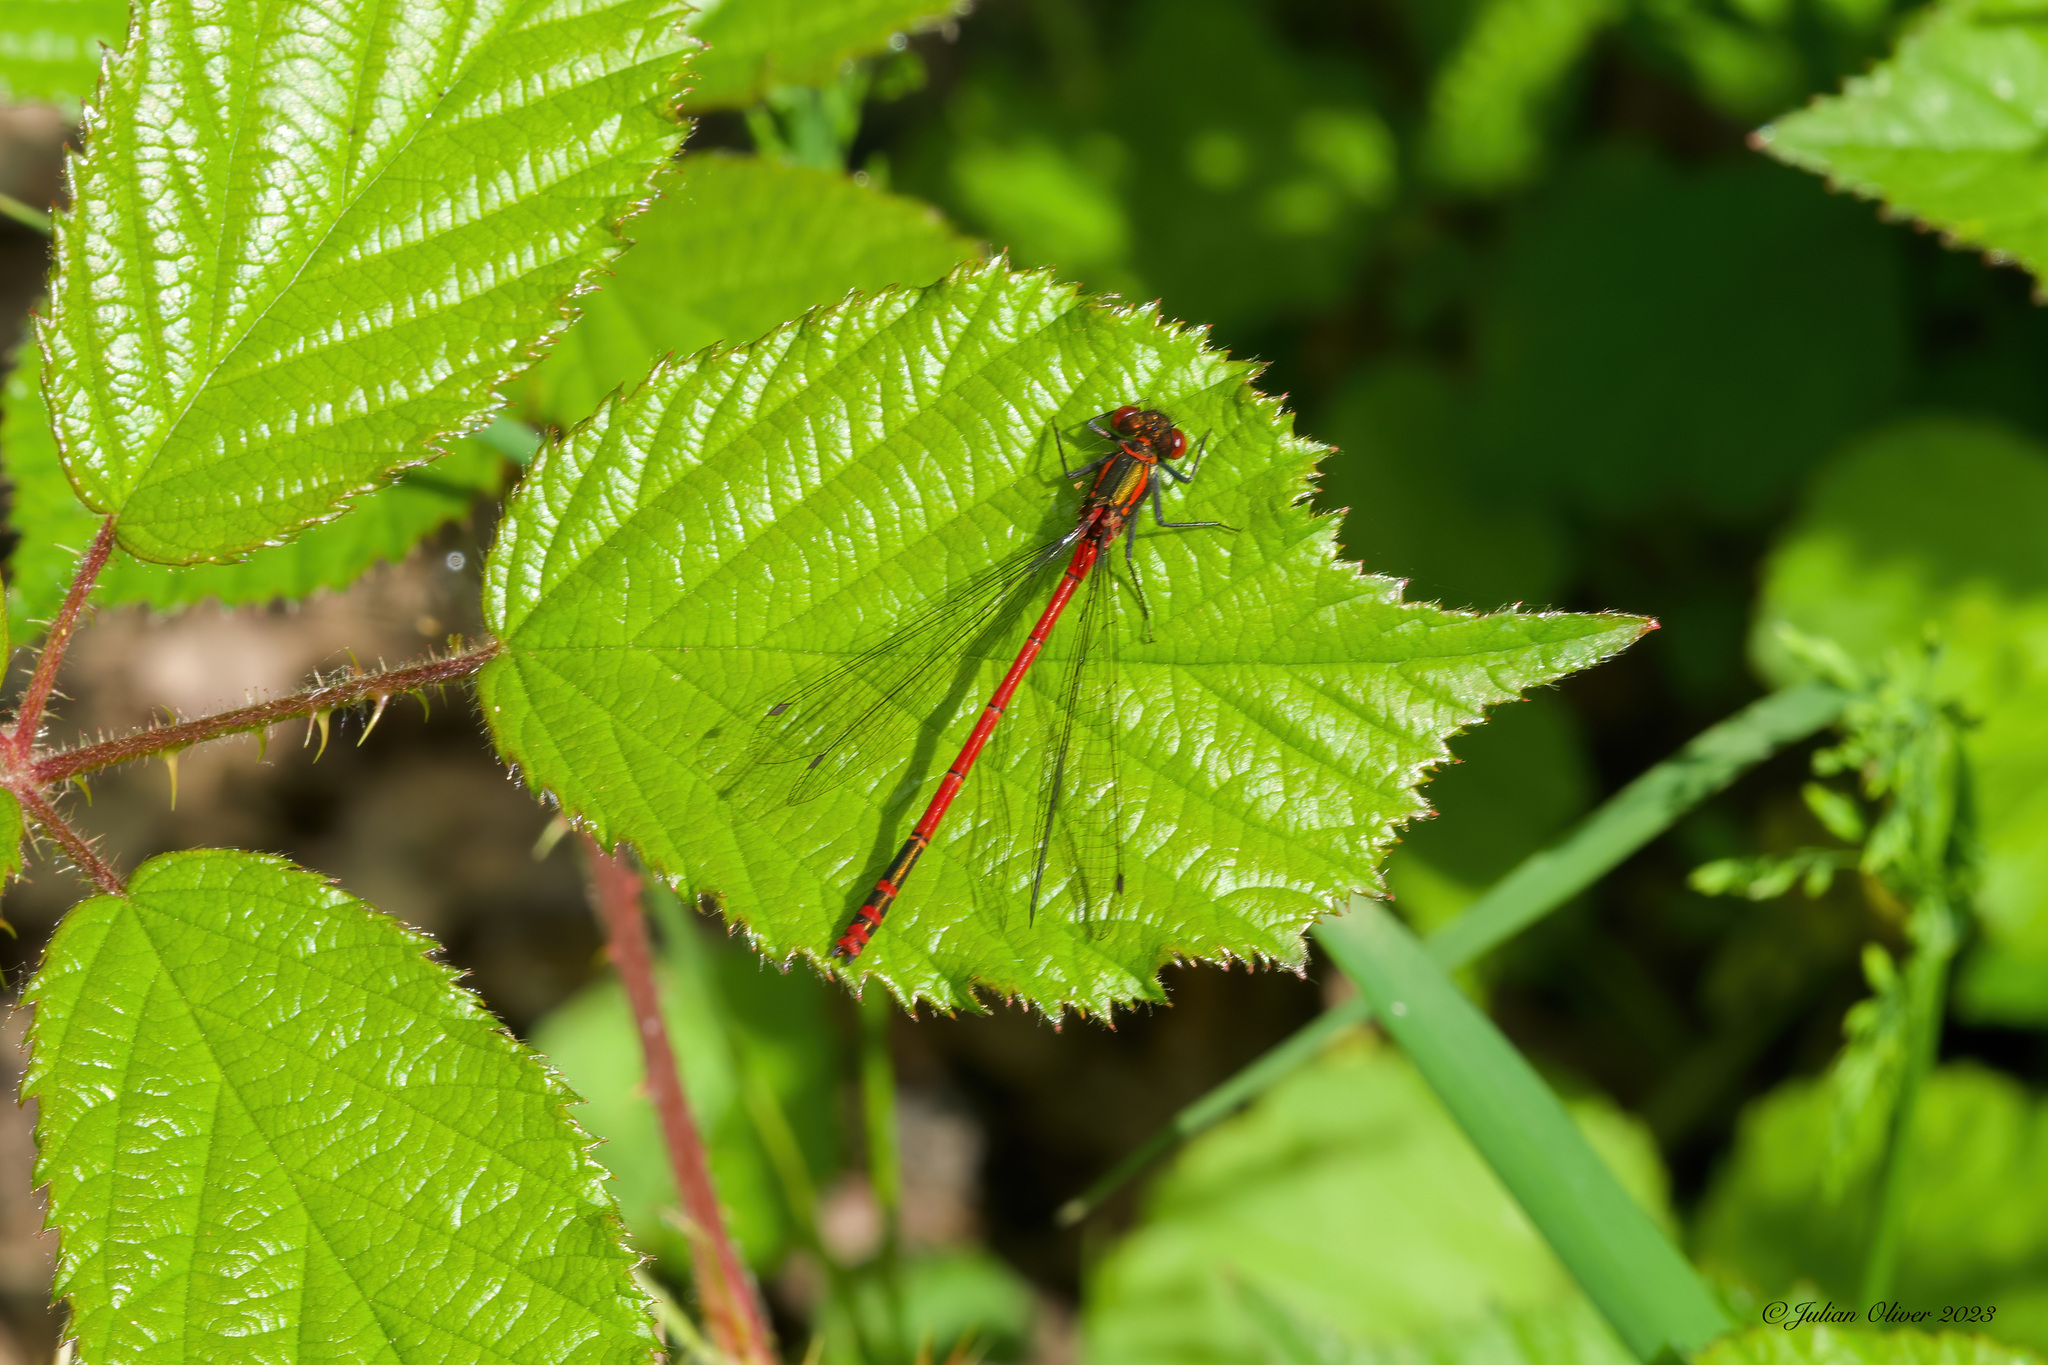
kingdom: Animalia
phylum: Arthropoda
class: Insecta
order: Odonata
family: Coenagrionidae
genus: Pyrrhosoma
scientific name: Pyrrhosoma nymphula
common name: Large red damsel
